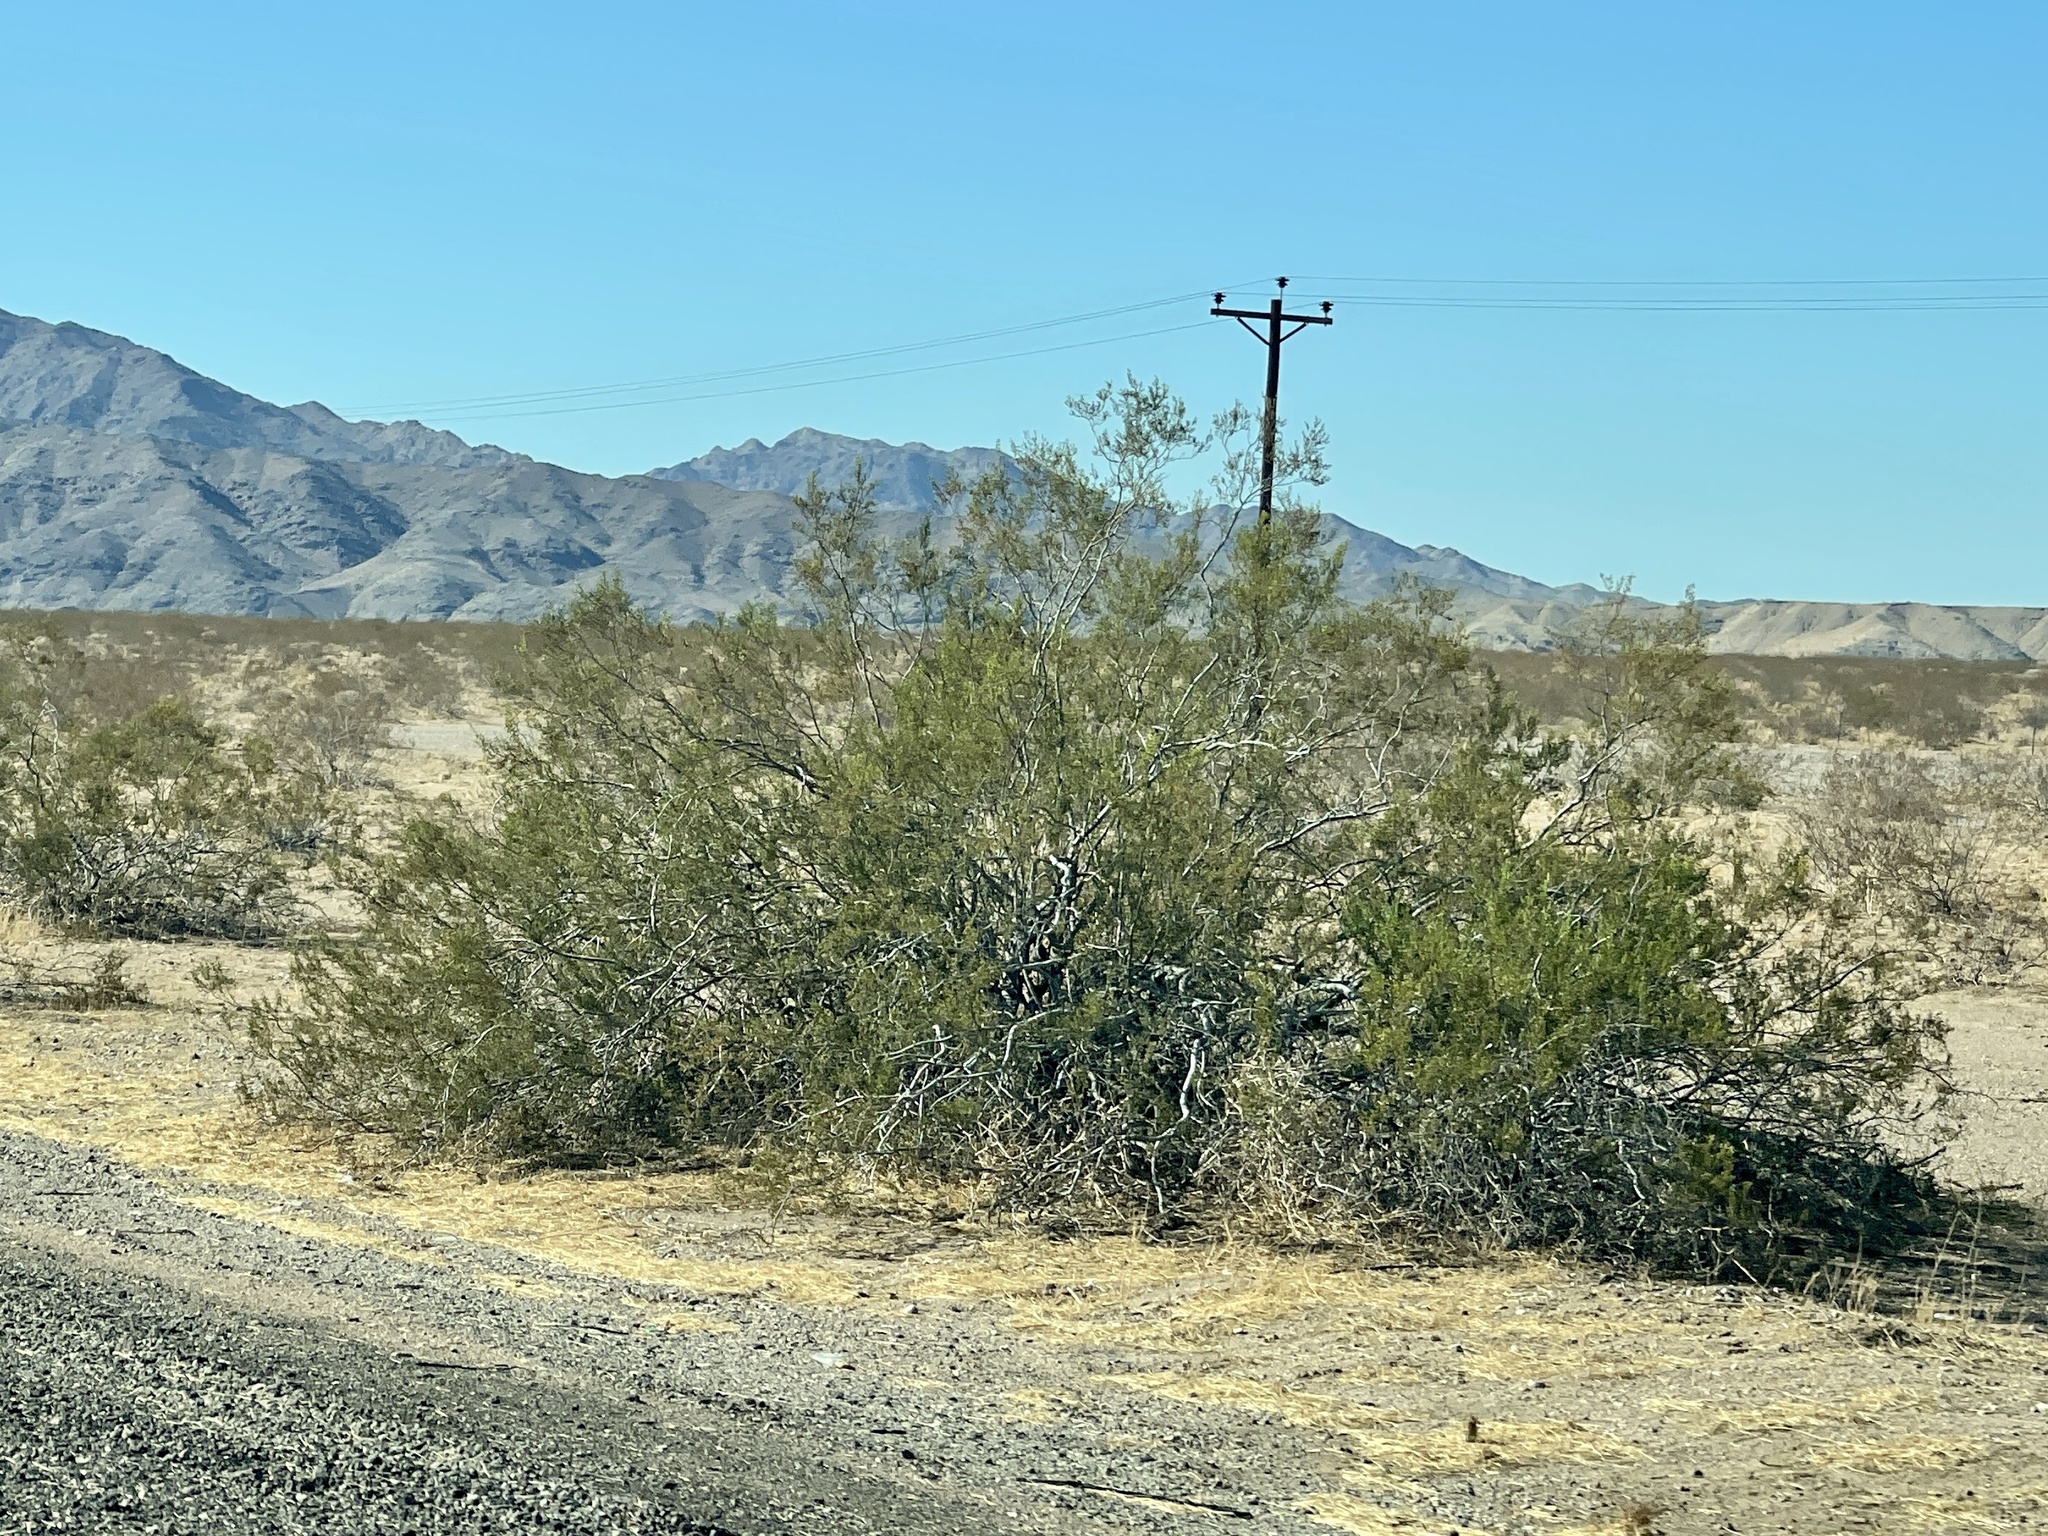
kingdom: Plantae
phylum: Tracheophyta
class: Magnoliopsida
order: Zygophyllales
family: Zygophyllaceae
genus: Larrea
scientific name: Larrea tridentata
